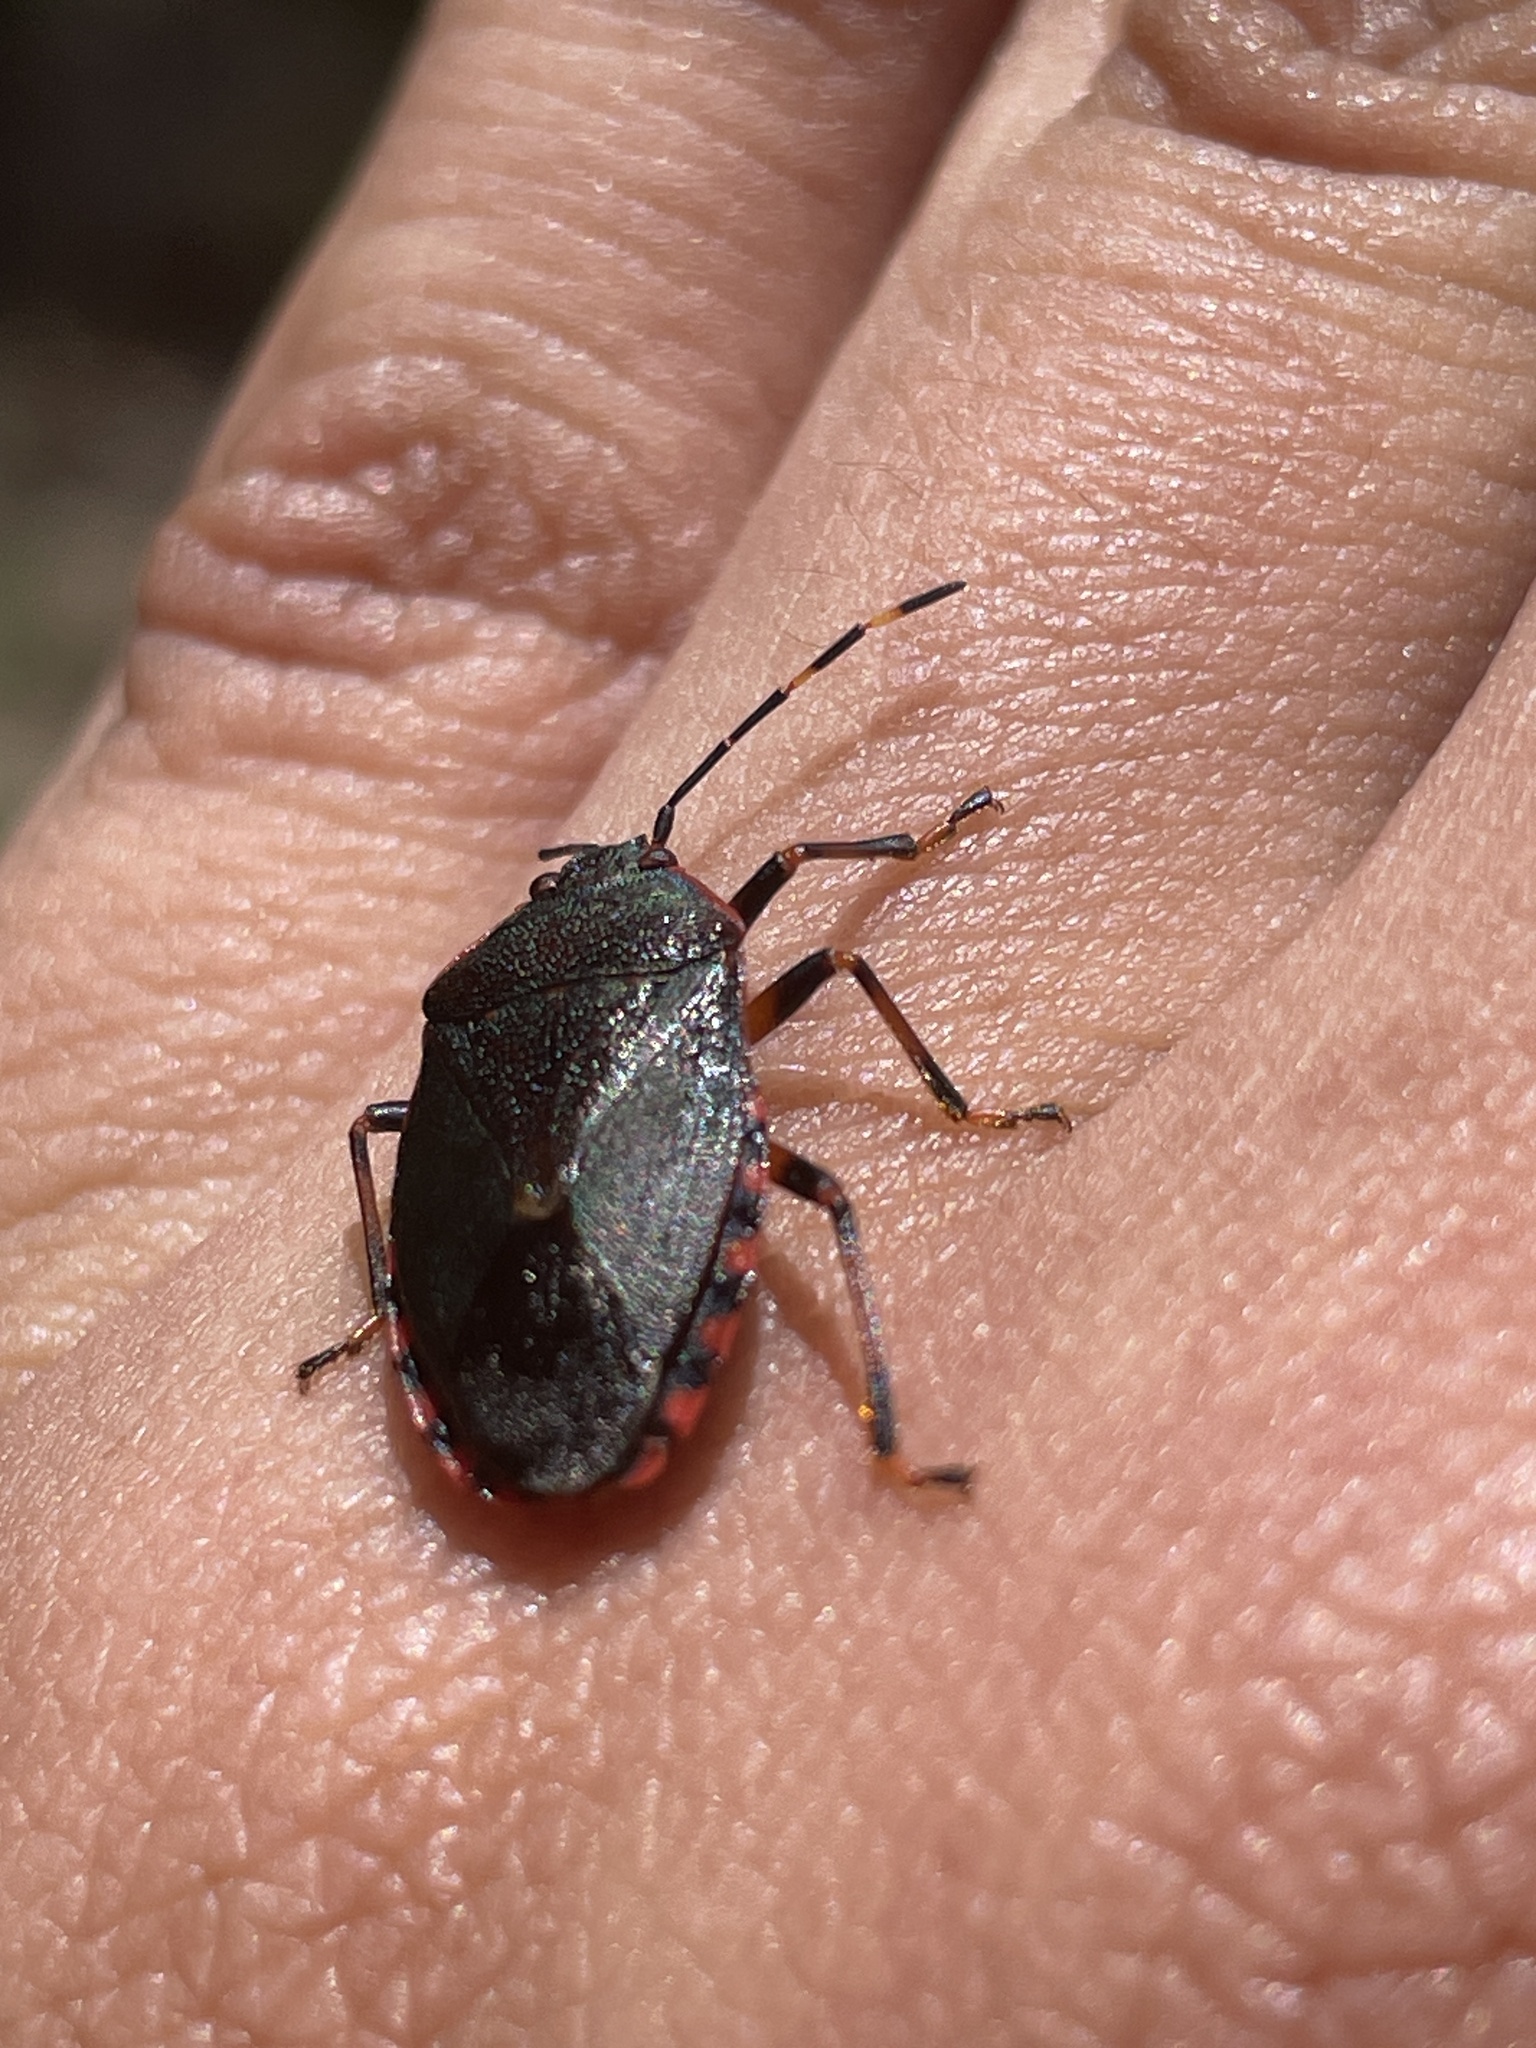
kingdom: Animalia
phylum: Arthropoda
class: Insecta
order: Hemiptera
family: Pentatomidae
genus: Notius
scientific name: Notius
